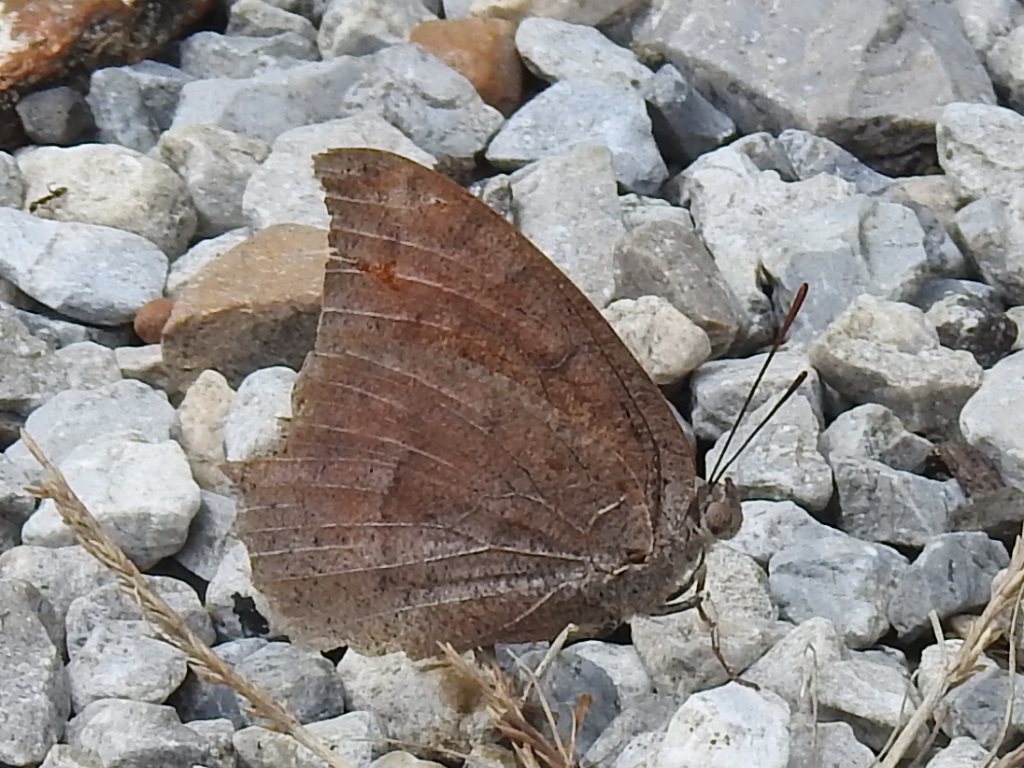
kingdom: Animalia
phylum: Arthropoda
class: Insecta
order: Lepidoptera
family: Nymphalidae
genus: Anaea
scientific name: Anaea andria
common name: Goatweed leafwing
